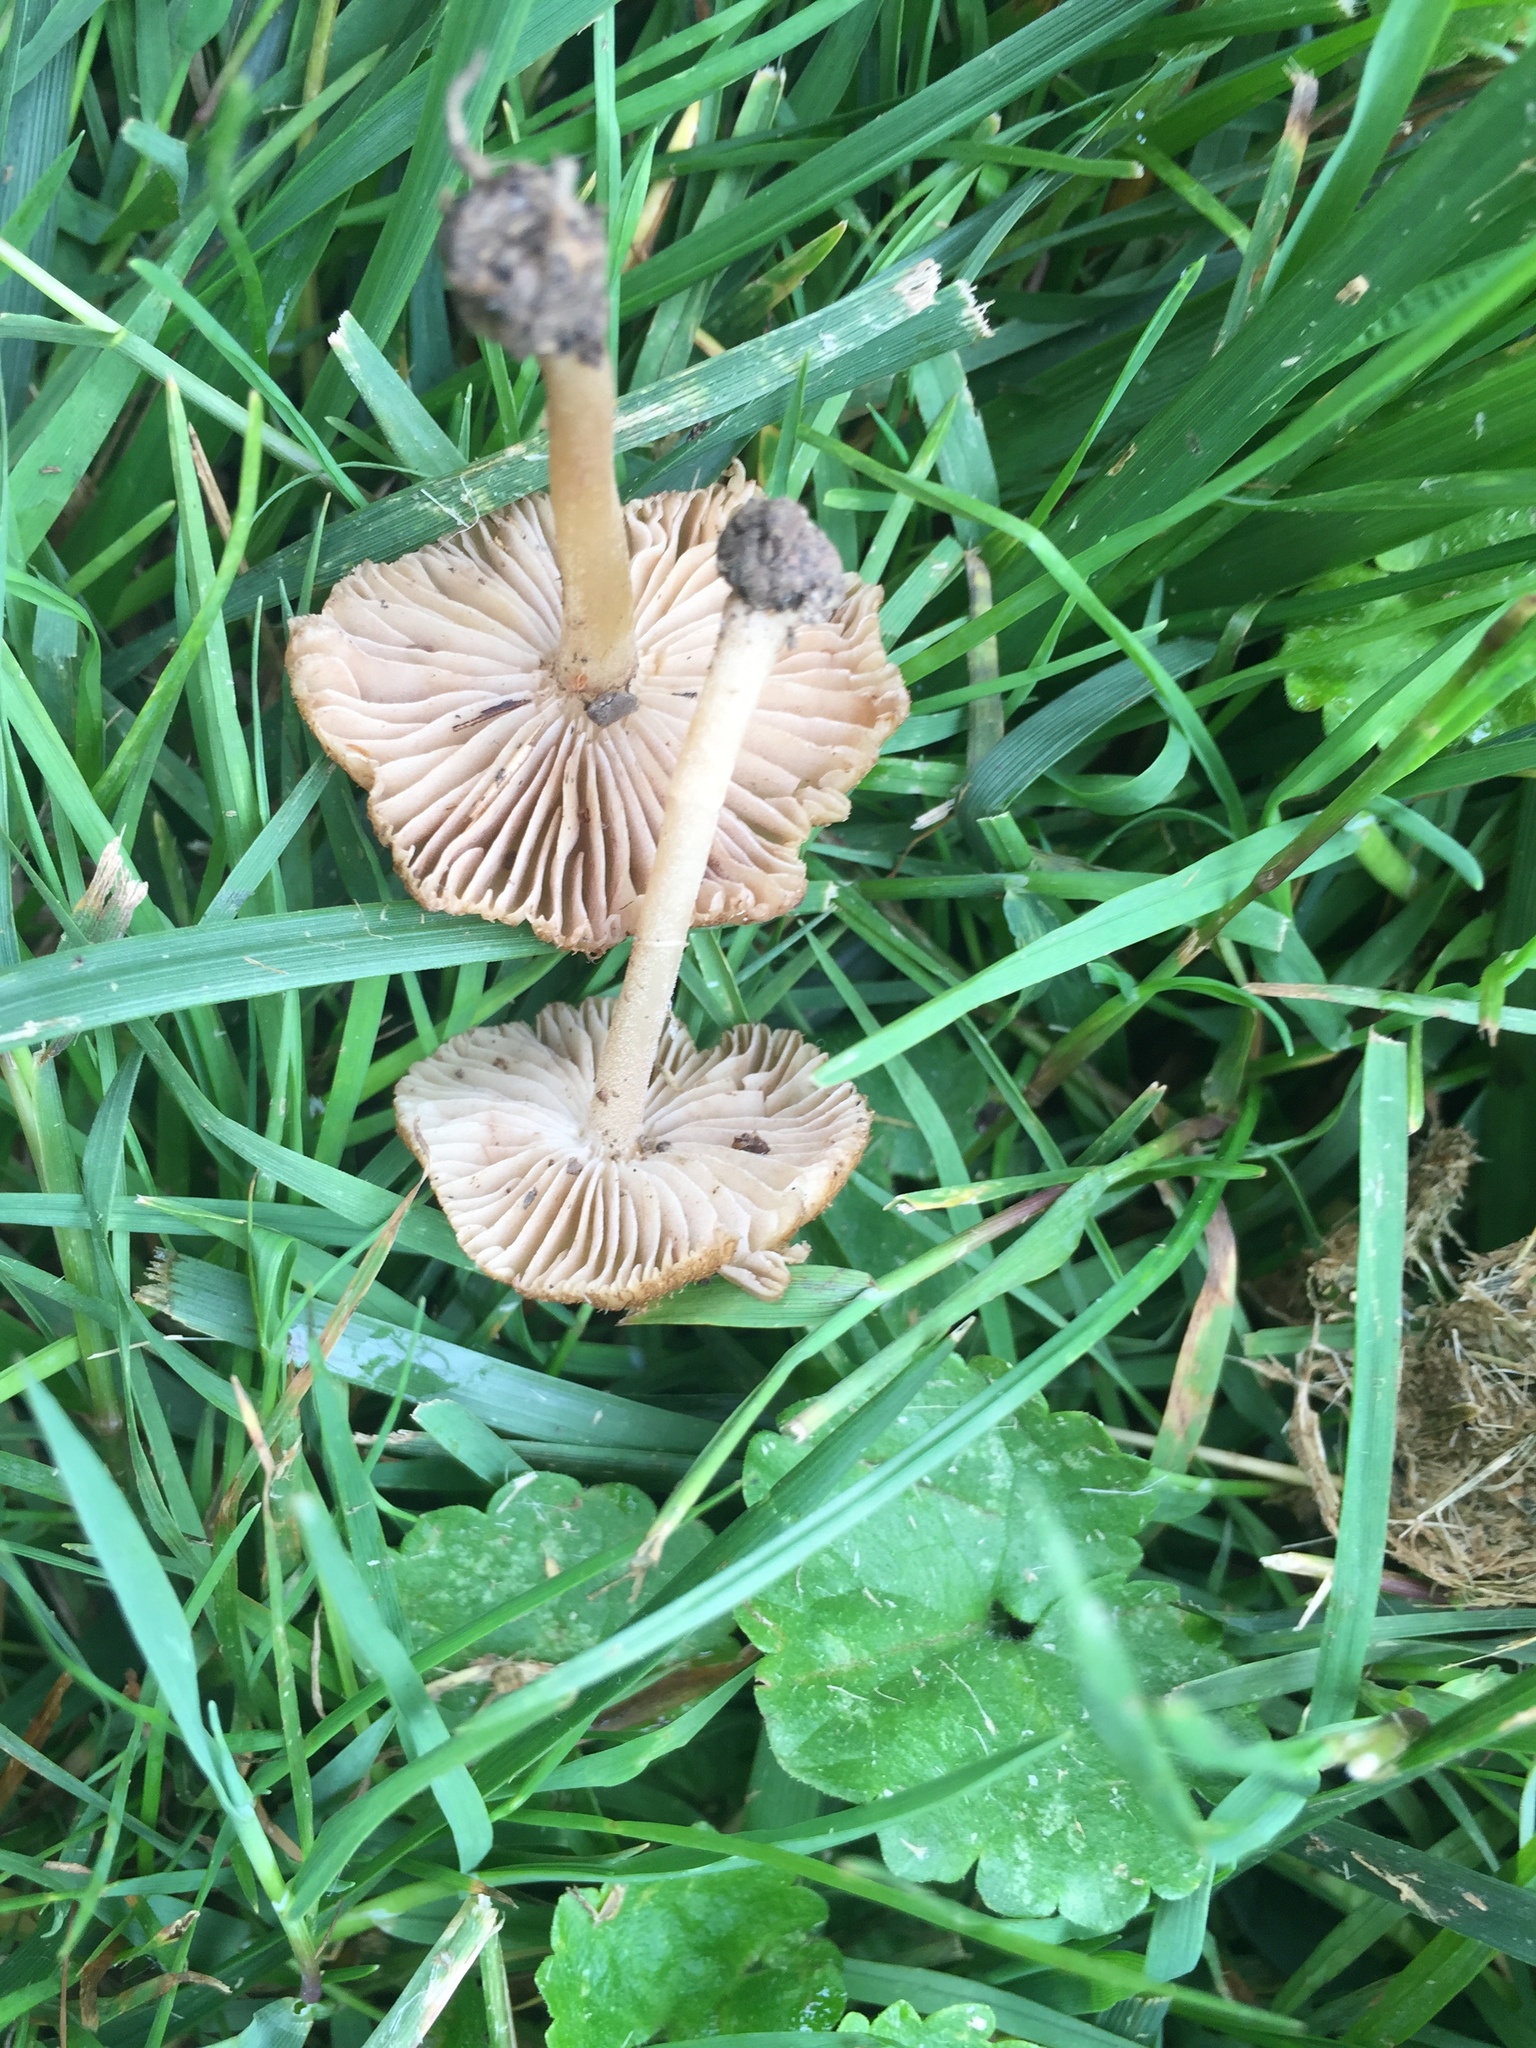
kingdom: Fungi
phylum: Basidiomycota
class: Agaricomycetes
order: Agaricales
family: Inocybaceae
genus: Pseudosperma
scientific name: Pseudosperma rimosum
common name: Split fibrecap
